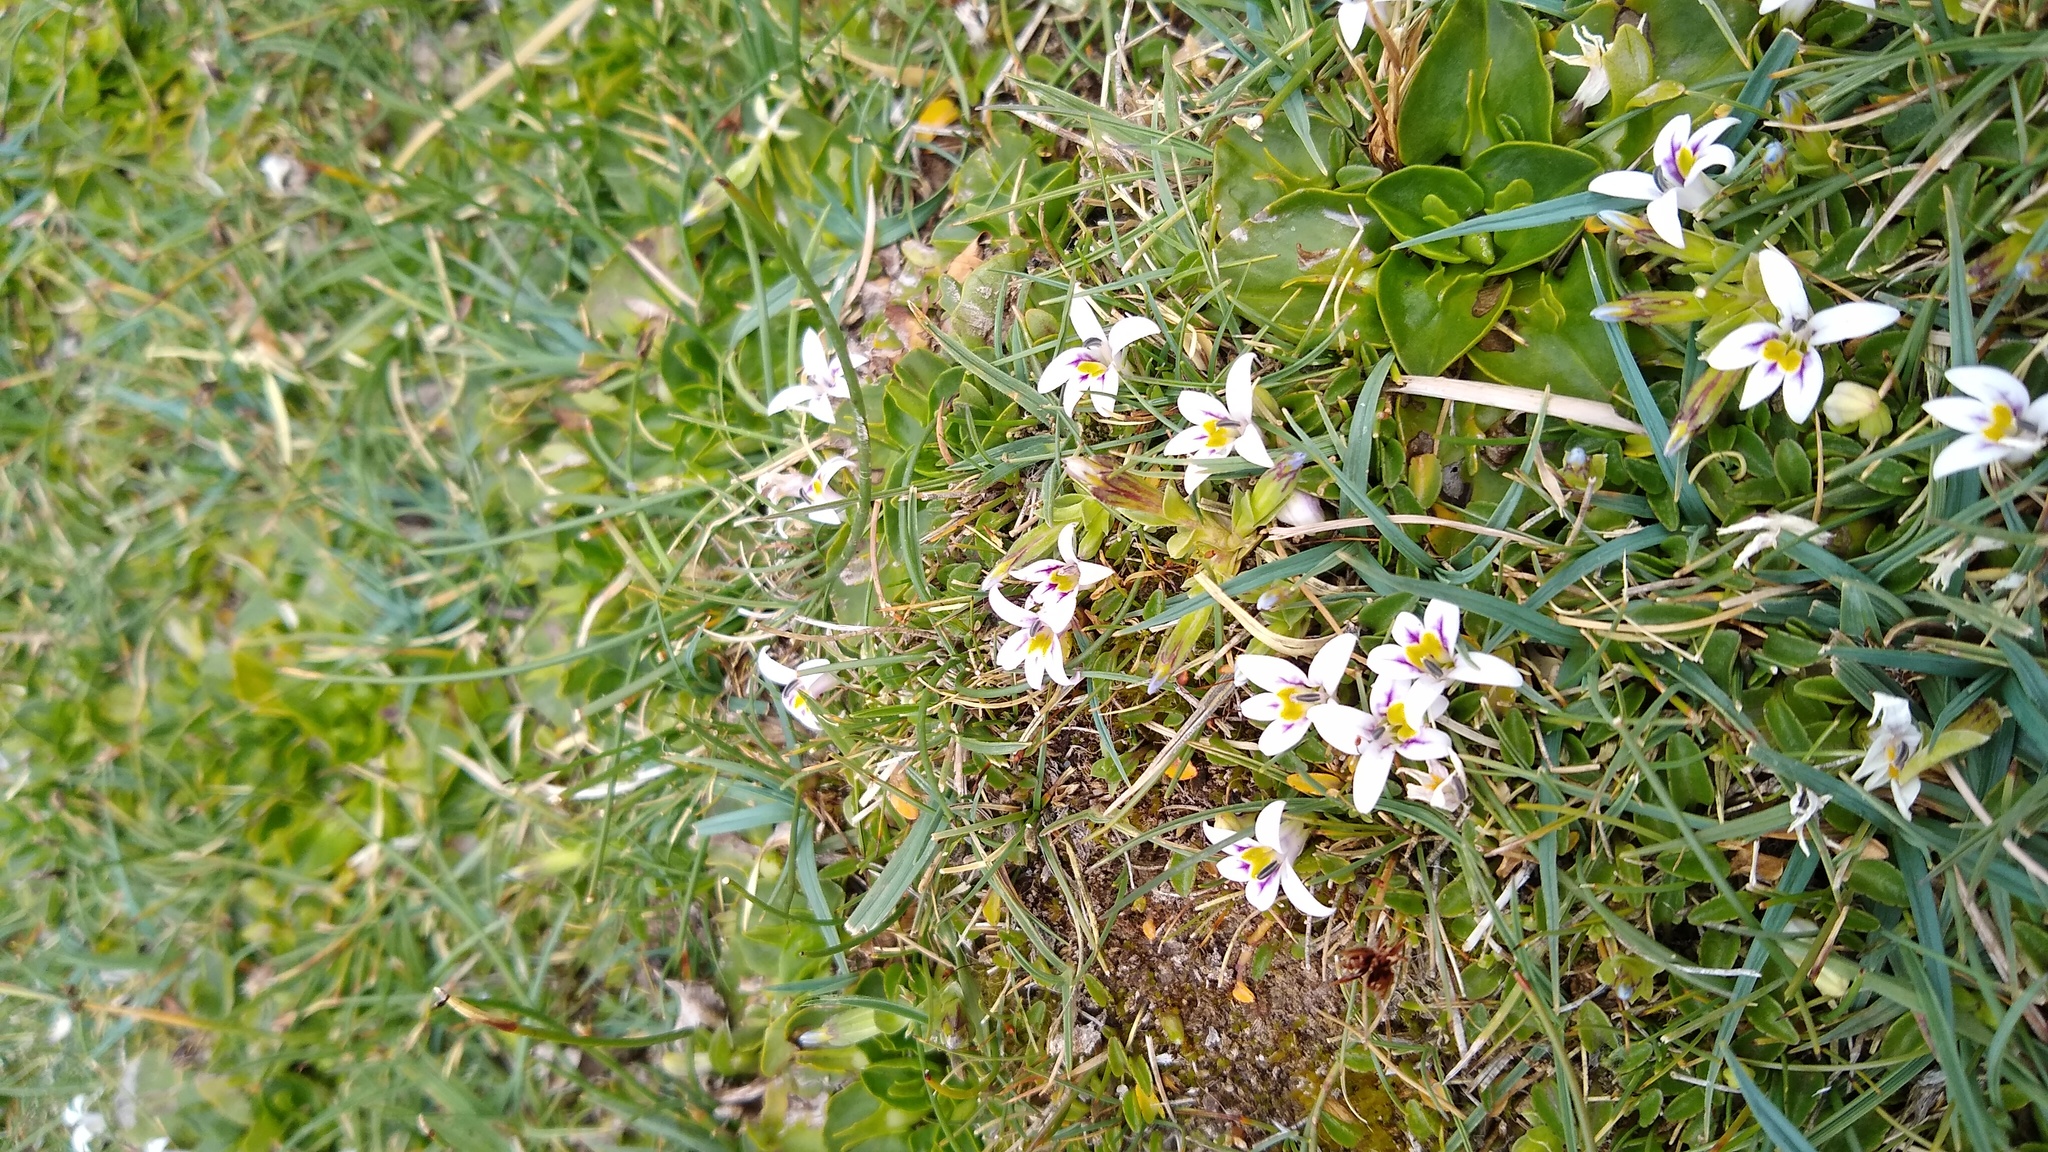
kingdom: Plantae
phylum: Tracheophyta
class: Magnoliopsida
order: Asterales
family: Campanulaceae
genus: Lobelia
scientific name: Lobelia oligophylla
